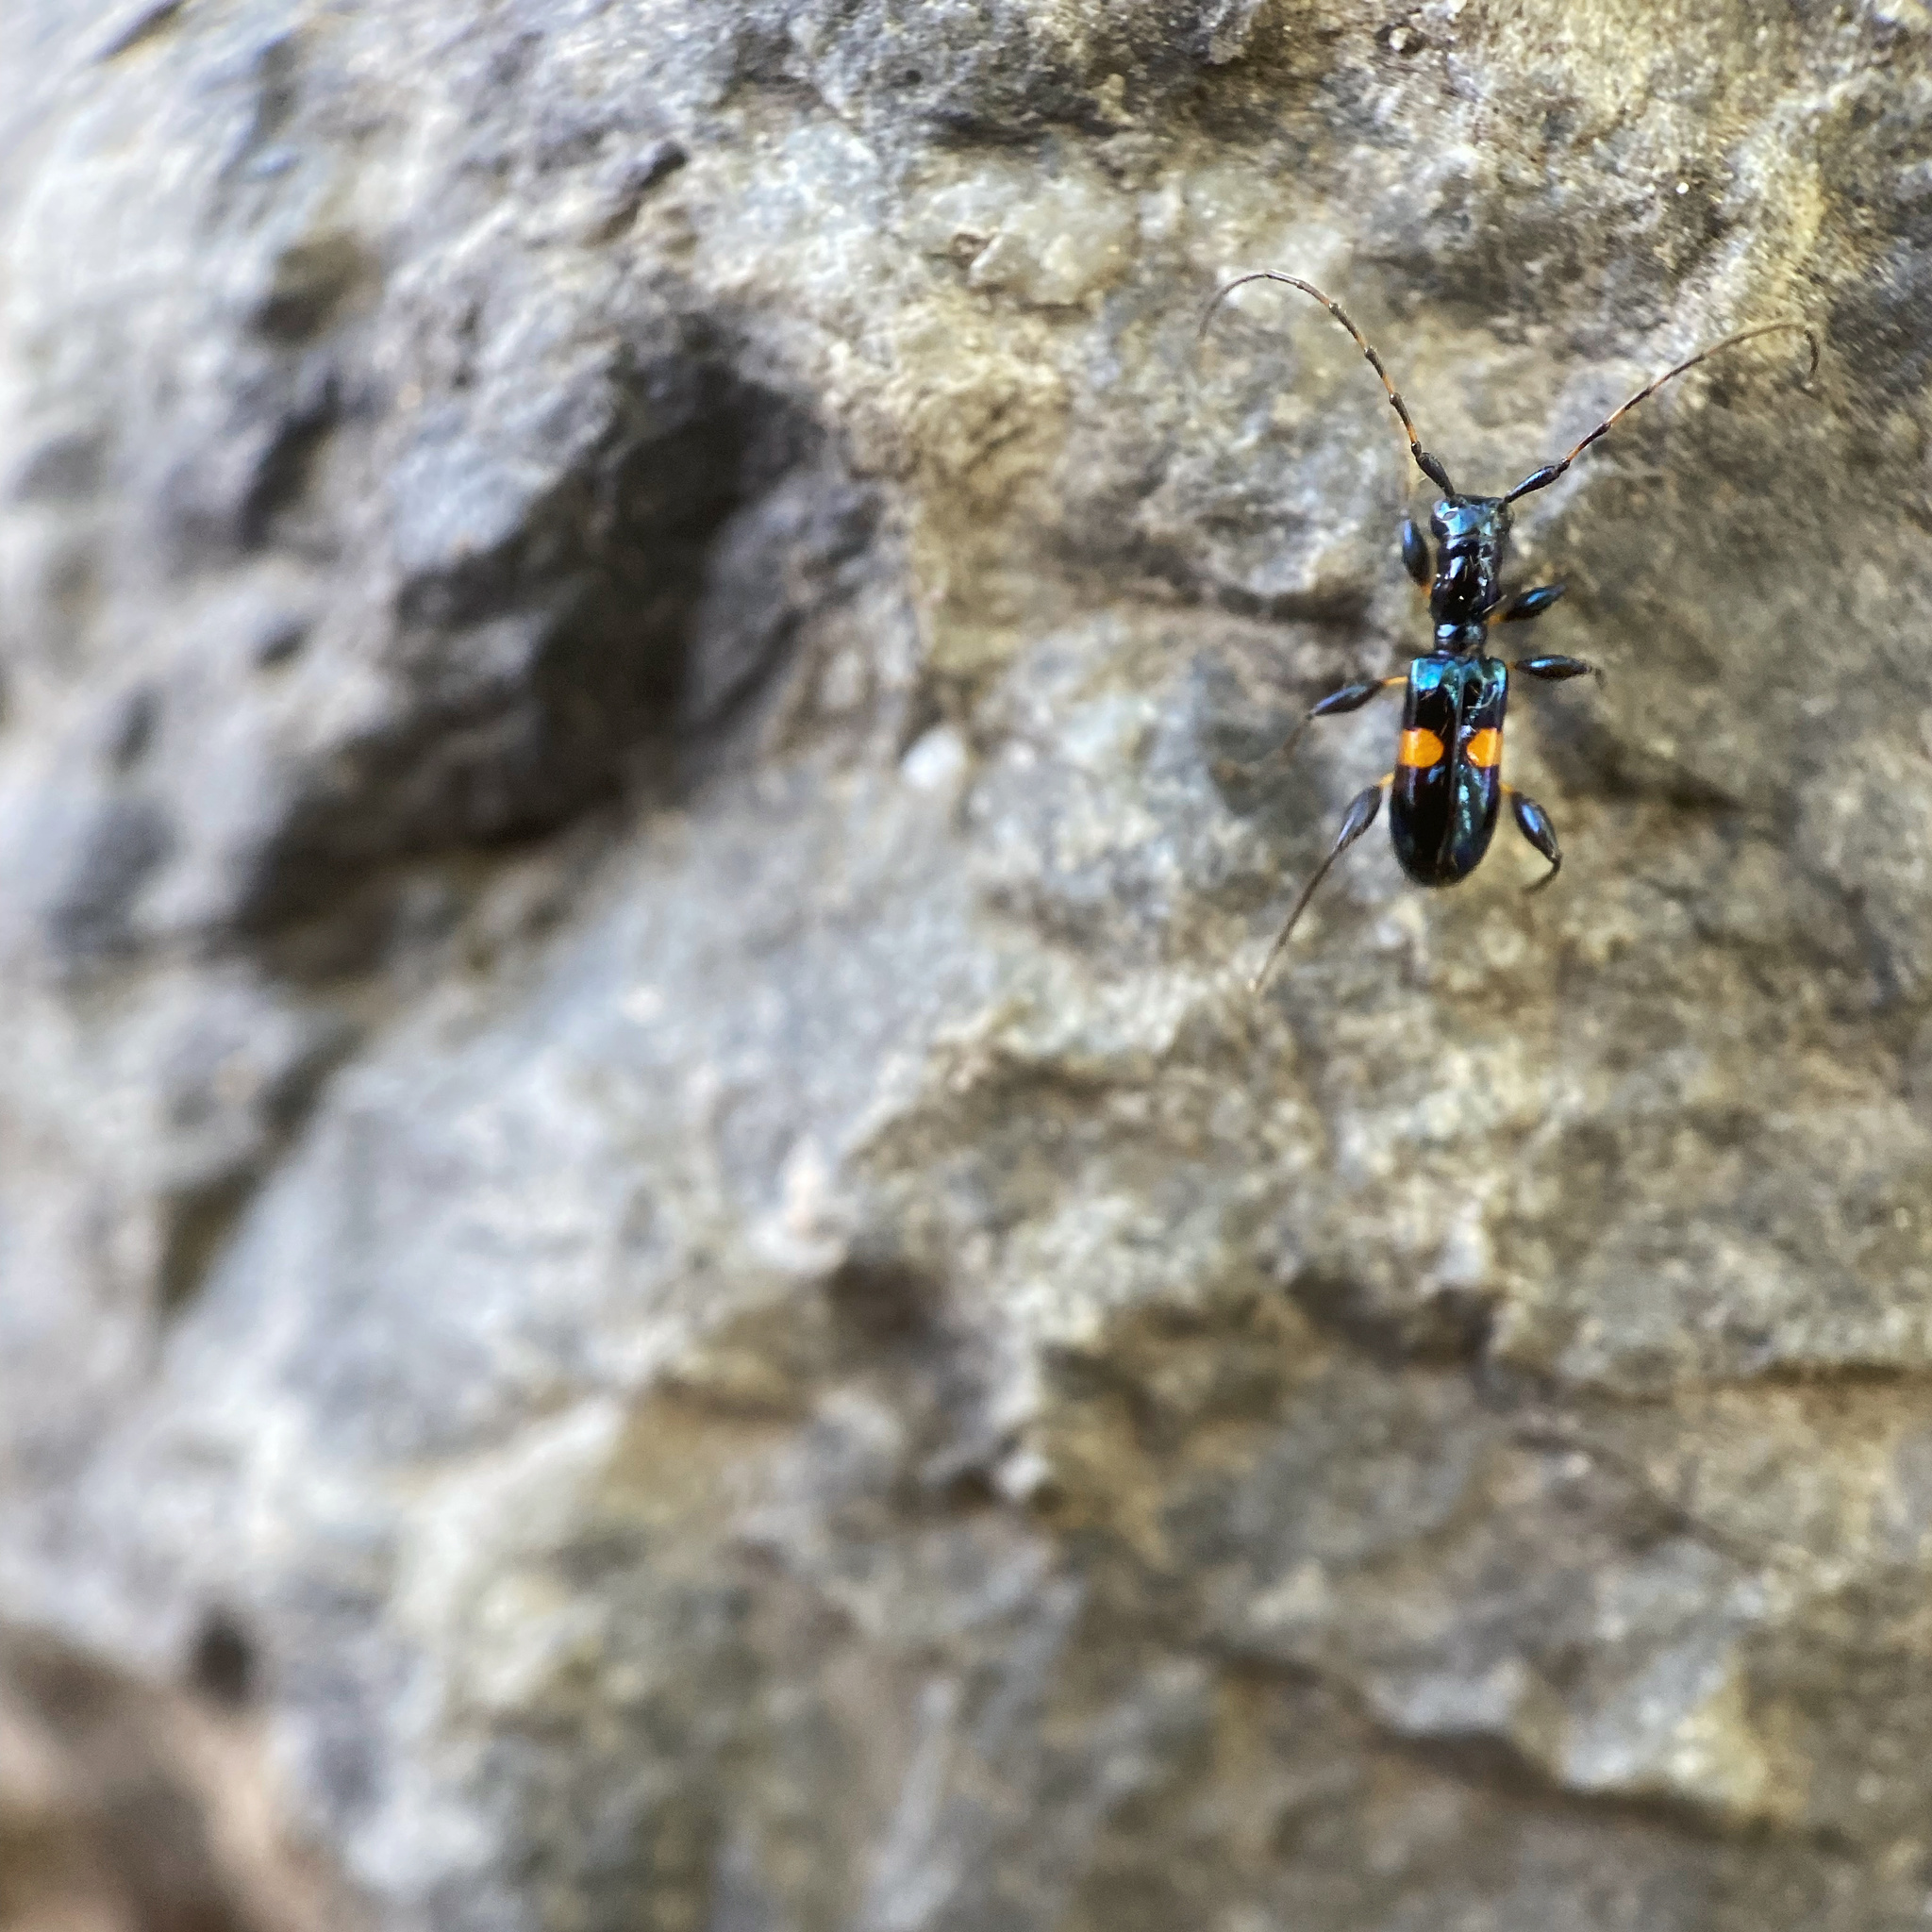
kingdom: Animalia
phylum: Arthropoda
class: Insecta
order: Coleoptera
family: Cerambycidae
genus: Zorion
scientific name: Zorion guttigerum
